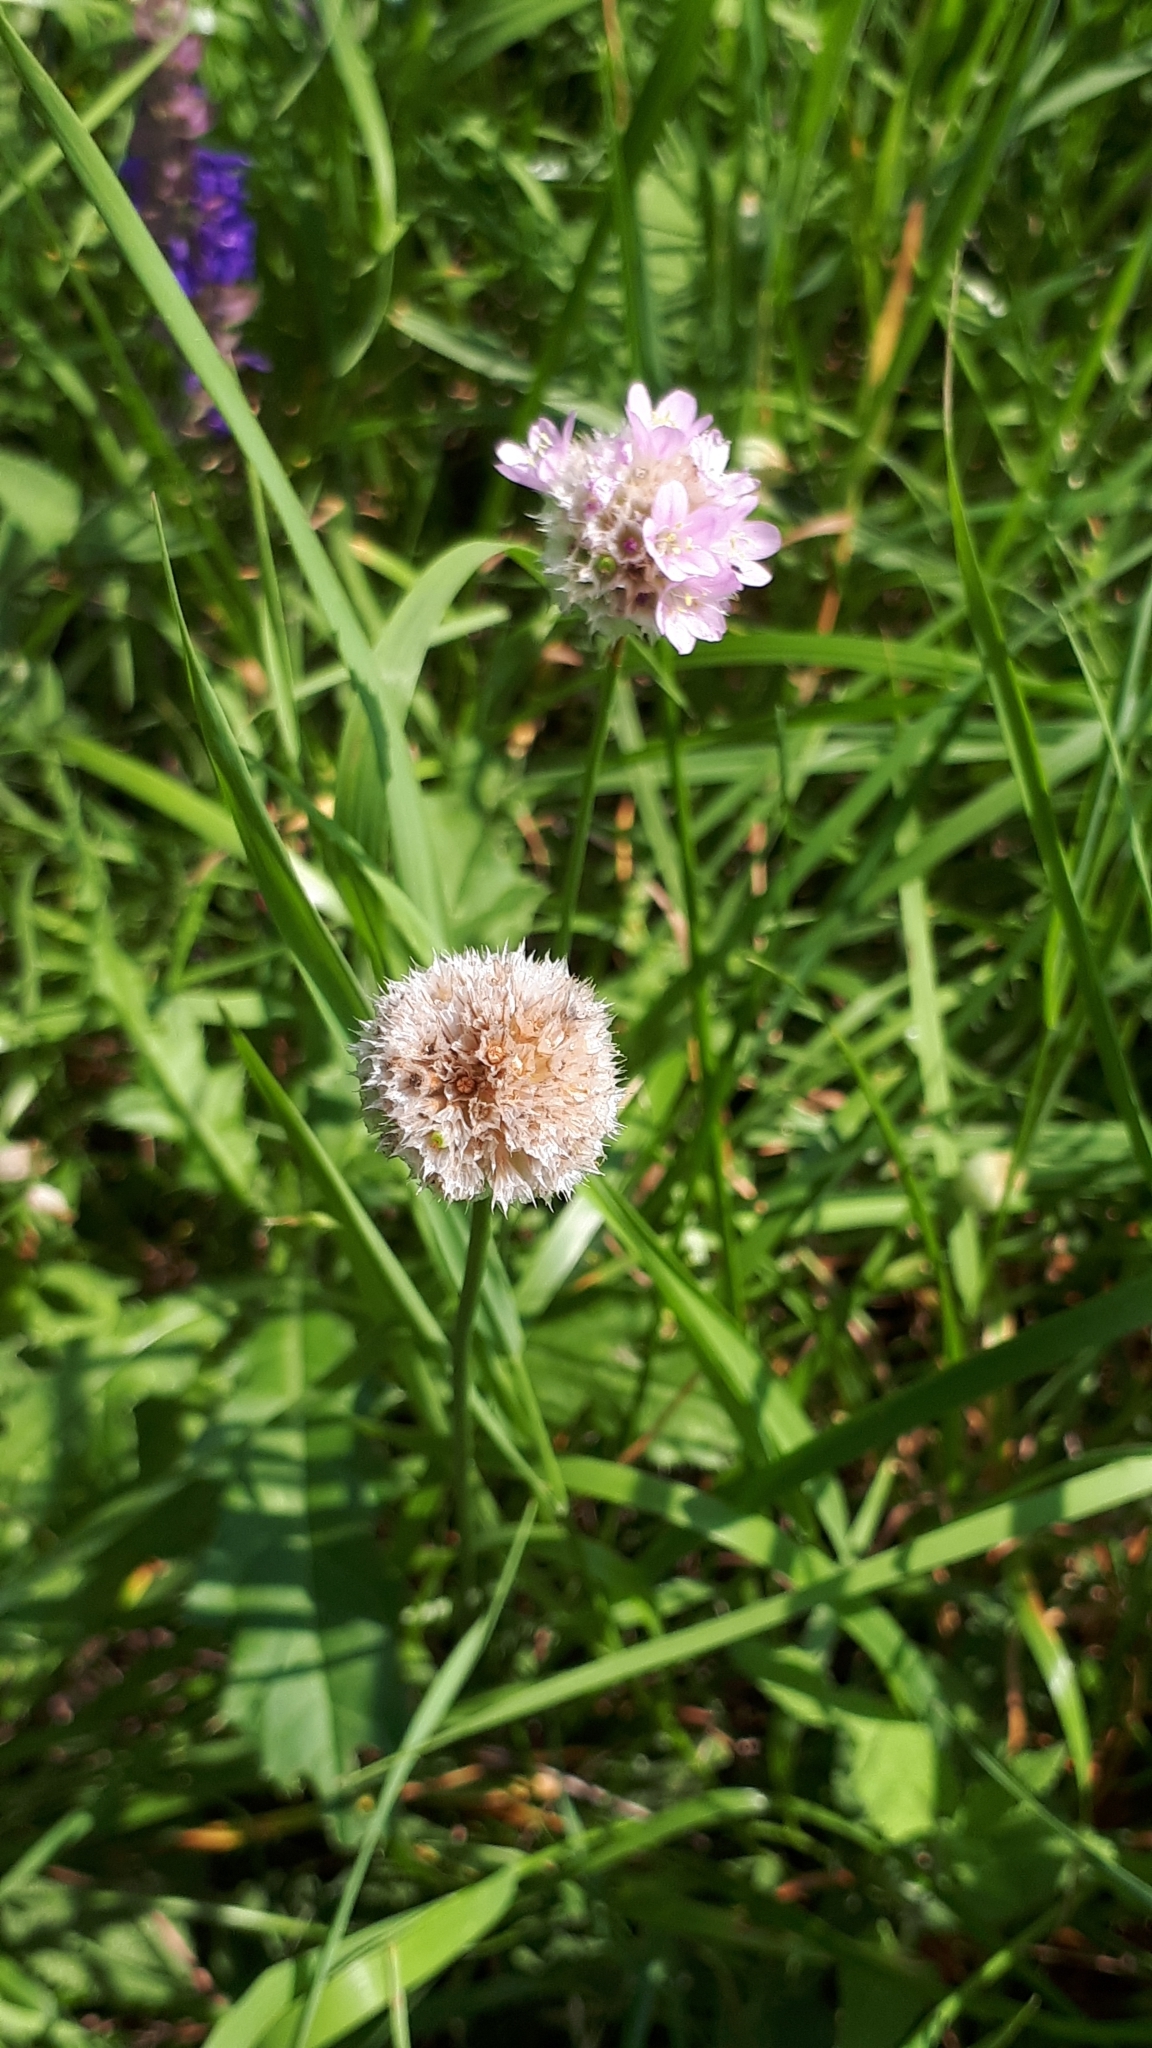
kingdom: Plantae
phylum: Tracheophyta
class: Magnoliopsida
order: Caryophyllales
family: Plumbaginaceae
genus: Armeria
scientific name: Armeria maritima
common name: Thrift
